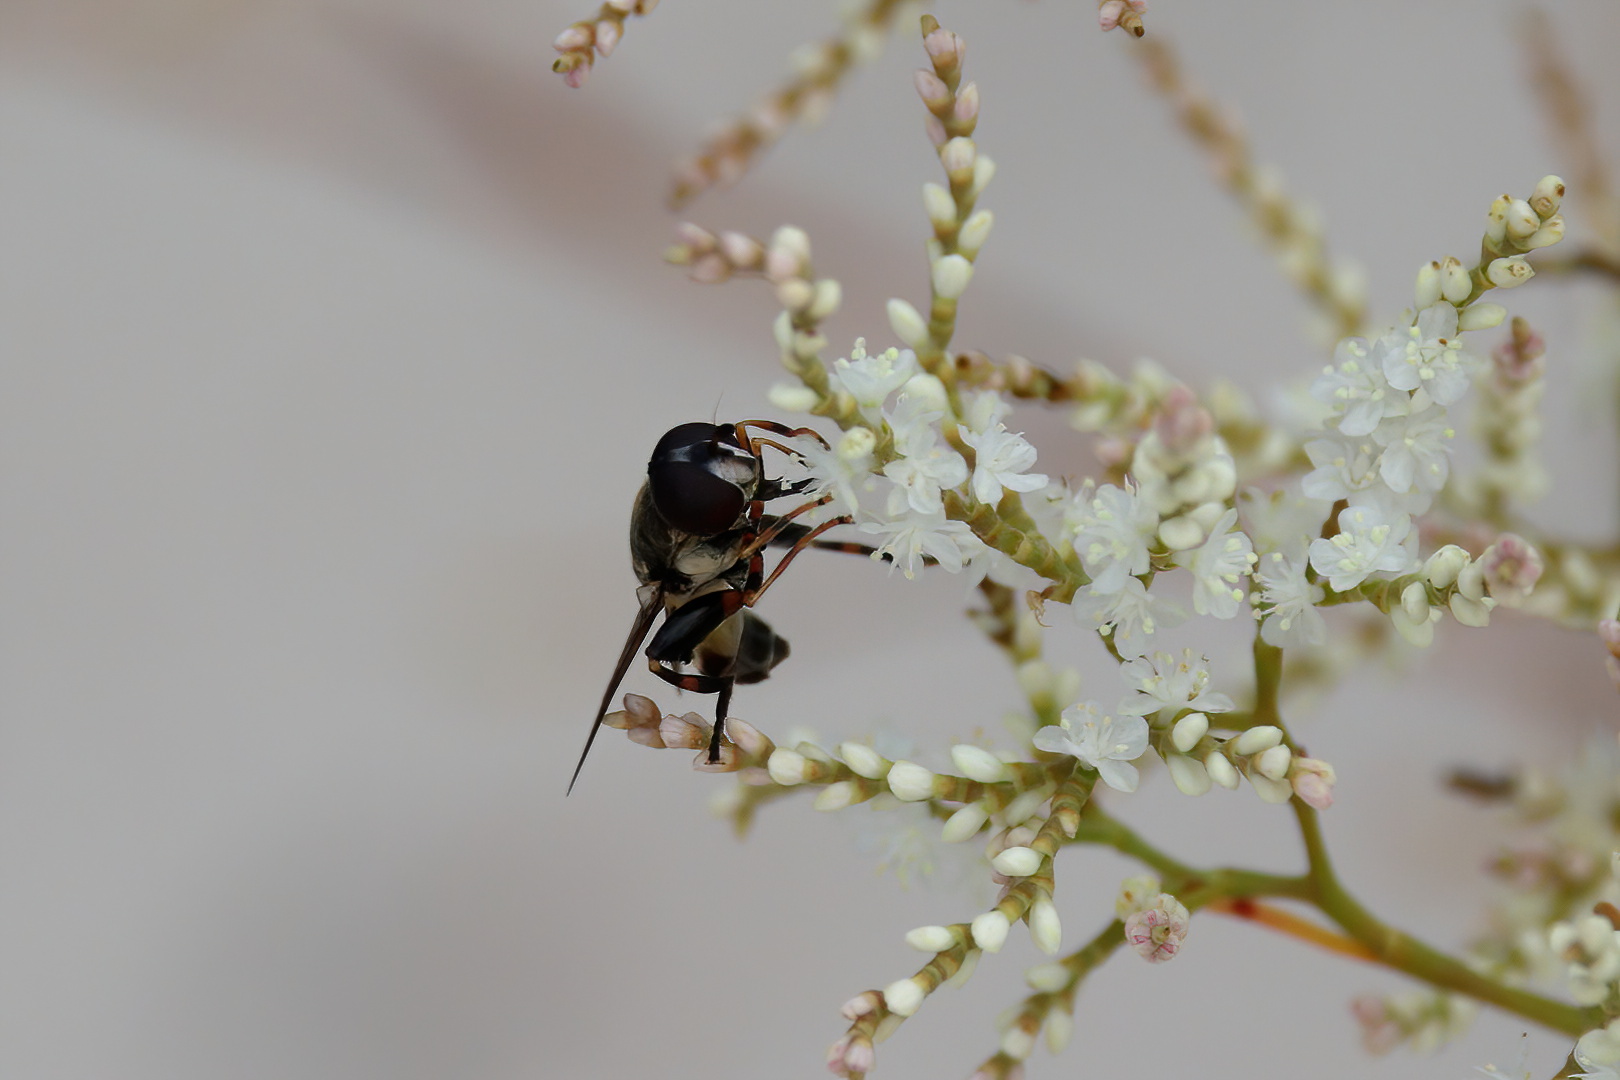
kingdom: Animalia
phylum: Arthropoda
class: Insecta
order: Diptera
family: Syrphidae
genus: Tropidia
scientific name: Tropidia albistylum
